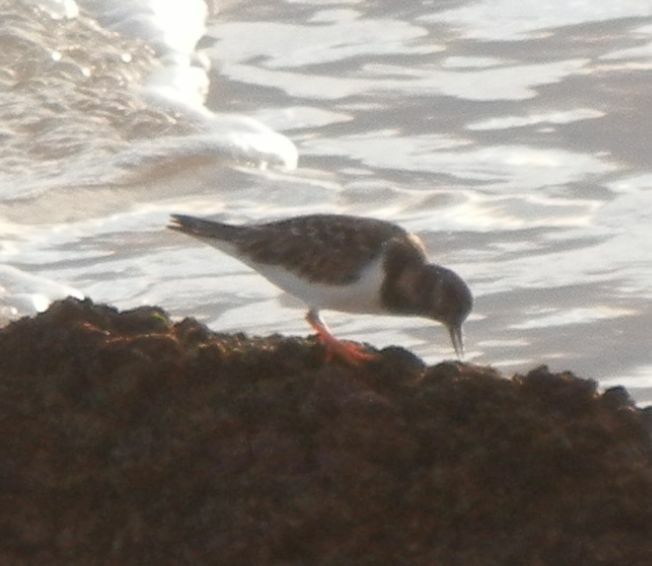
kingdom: Animalia
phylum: Chordata
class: Aves
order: Charadriiformes
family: Scolopacidae
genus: Arenaria
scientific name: Arenaria interpres
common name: Ruddy turnstone
